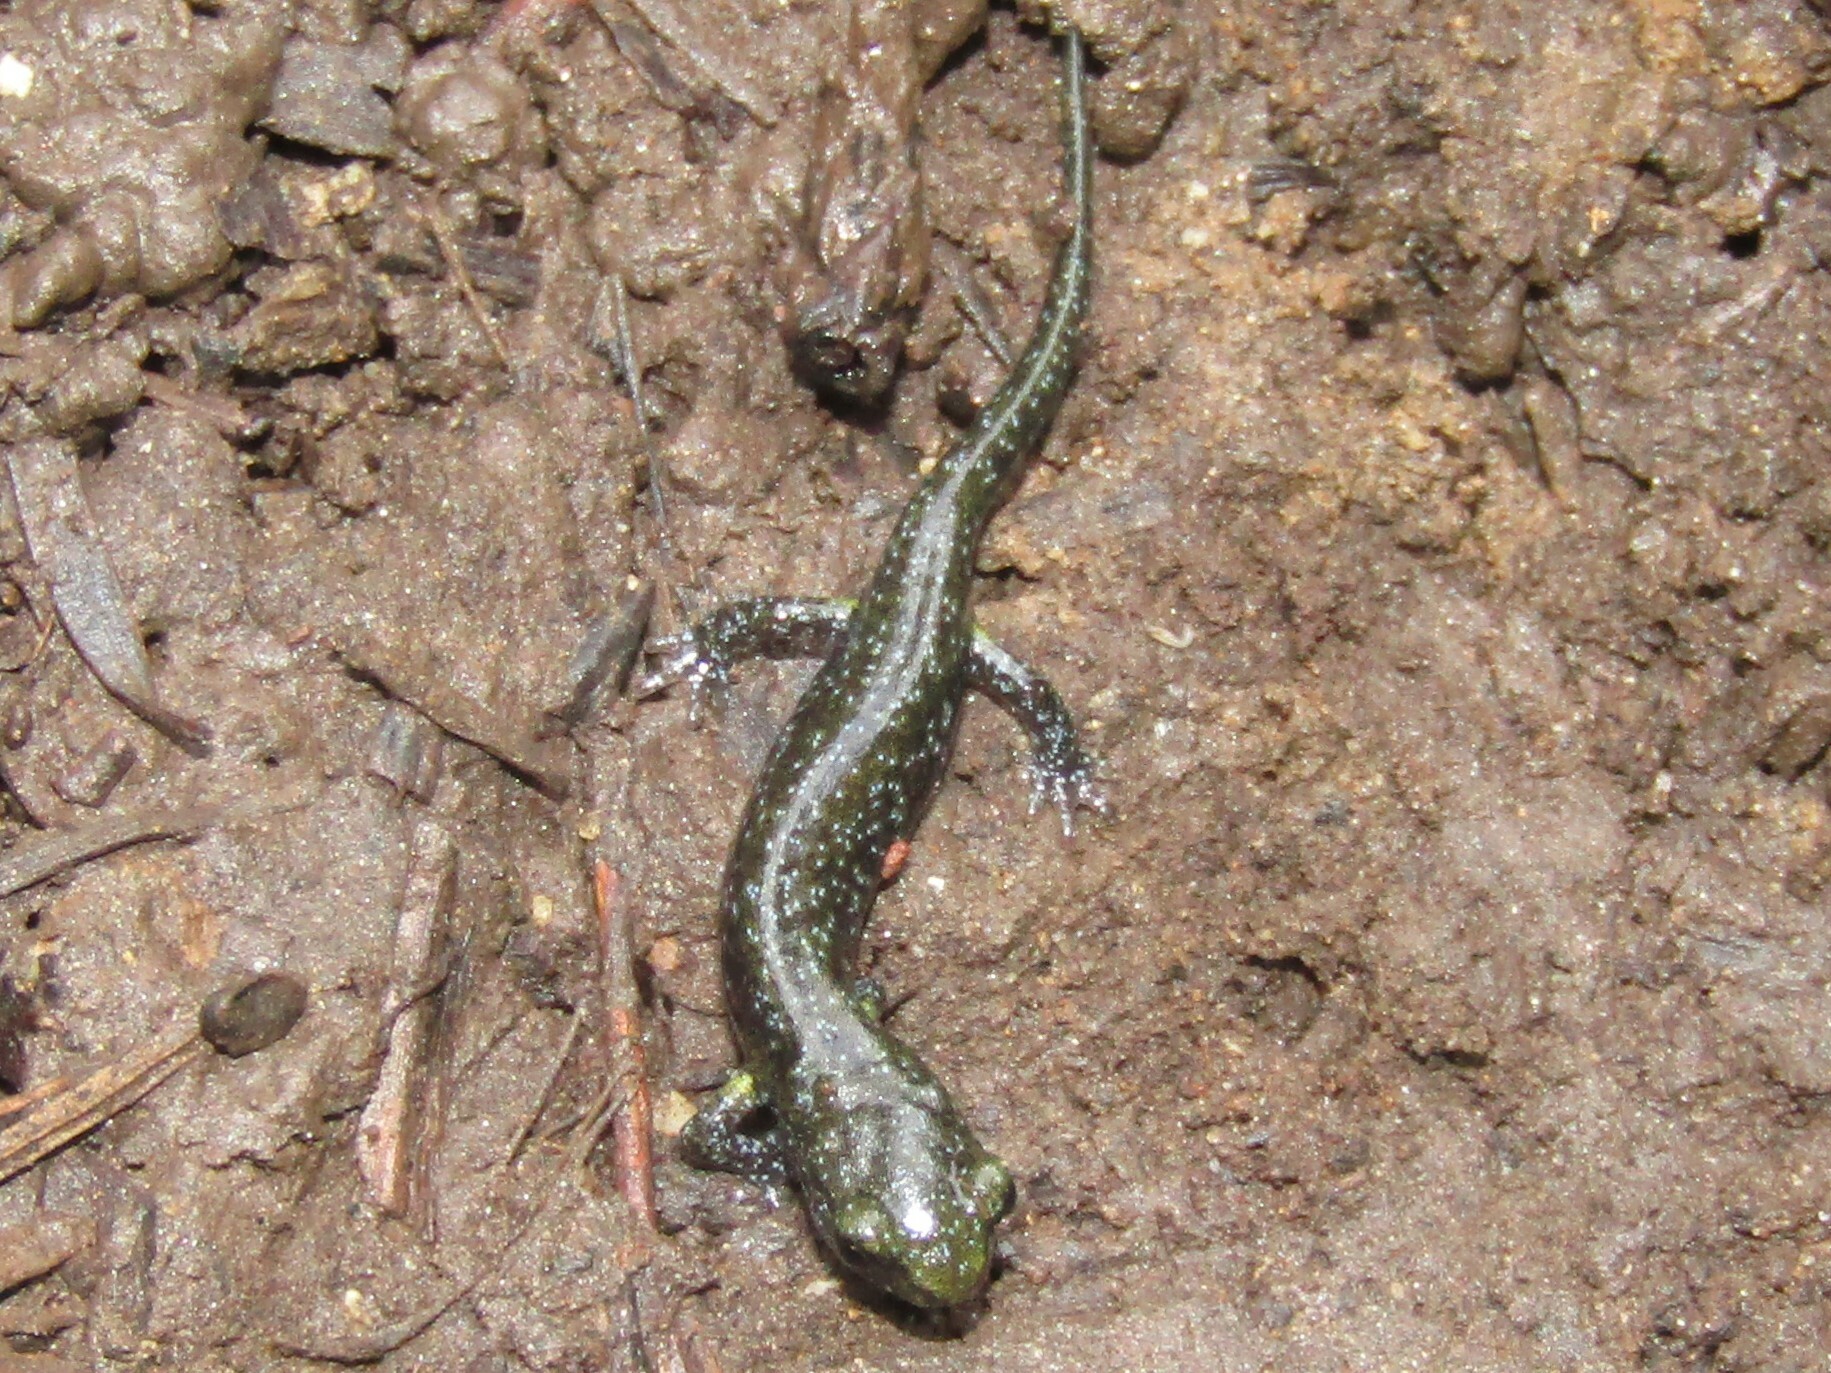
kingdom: Animalia
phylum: Chordata
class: Amphibia
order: Caudata
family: Plethodontidae
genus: Aneides
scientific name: Aneides niger
